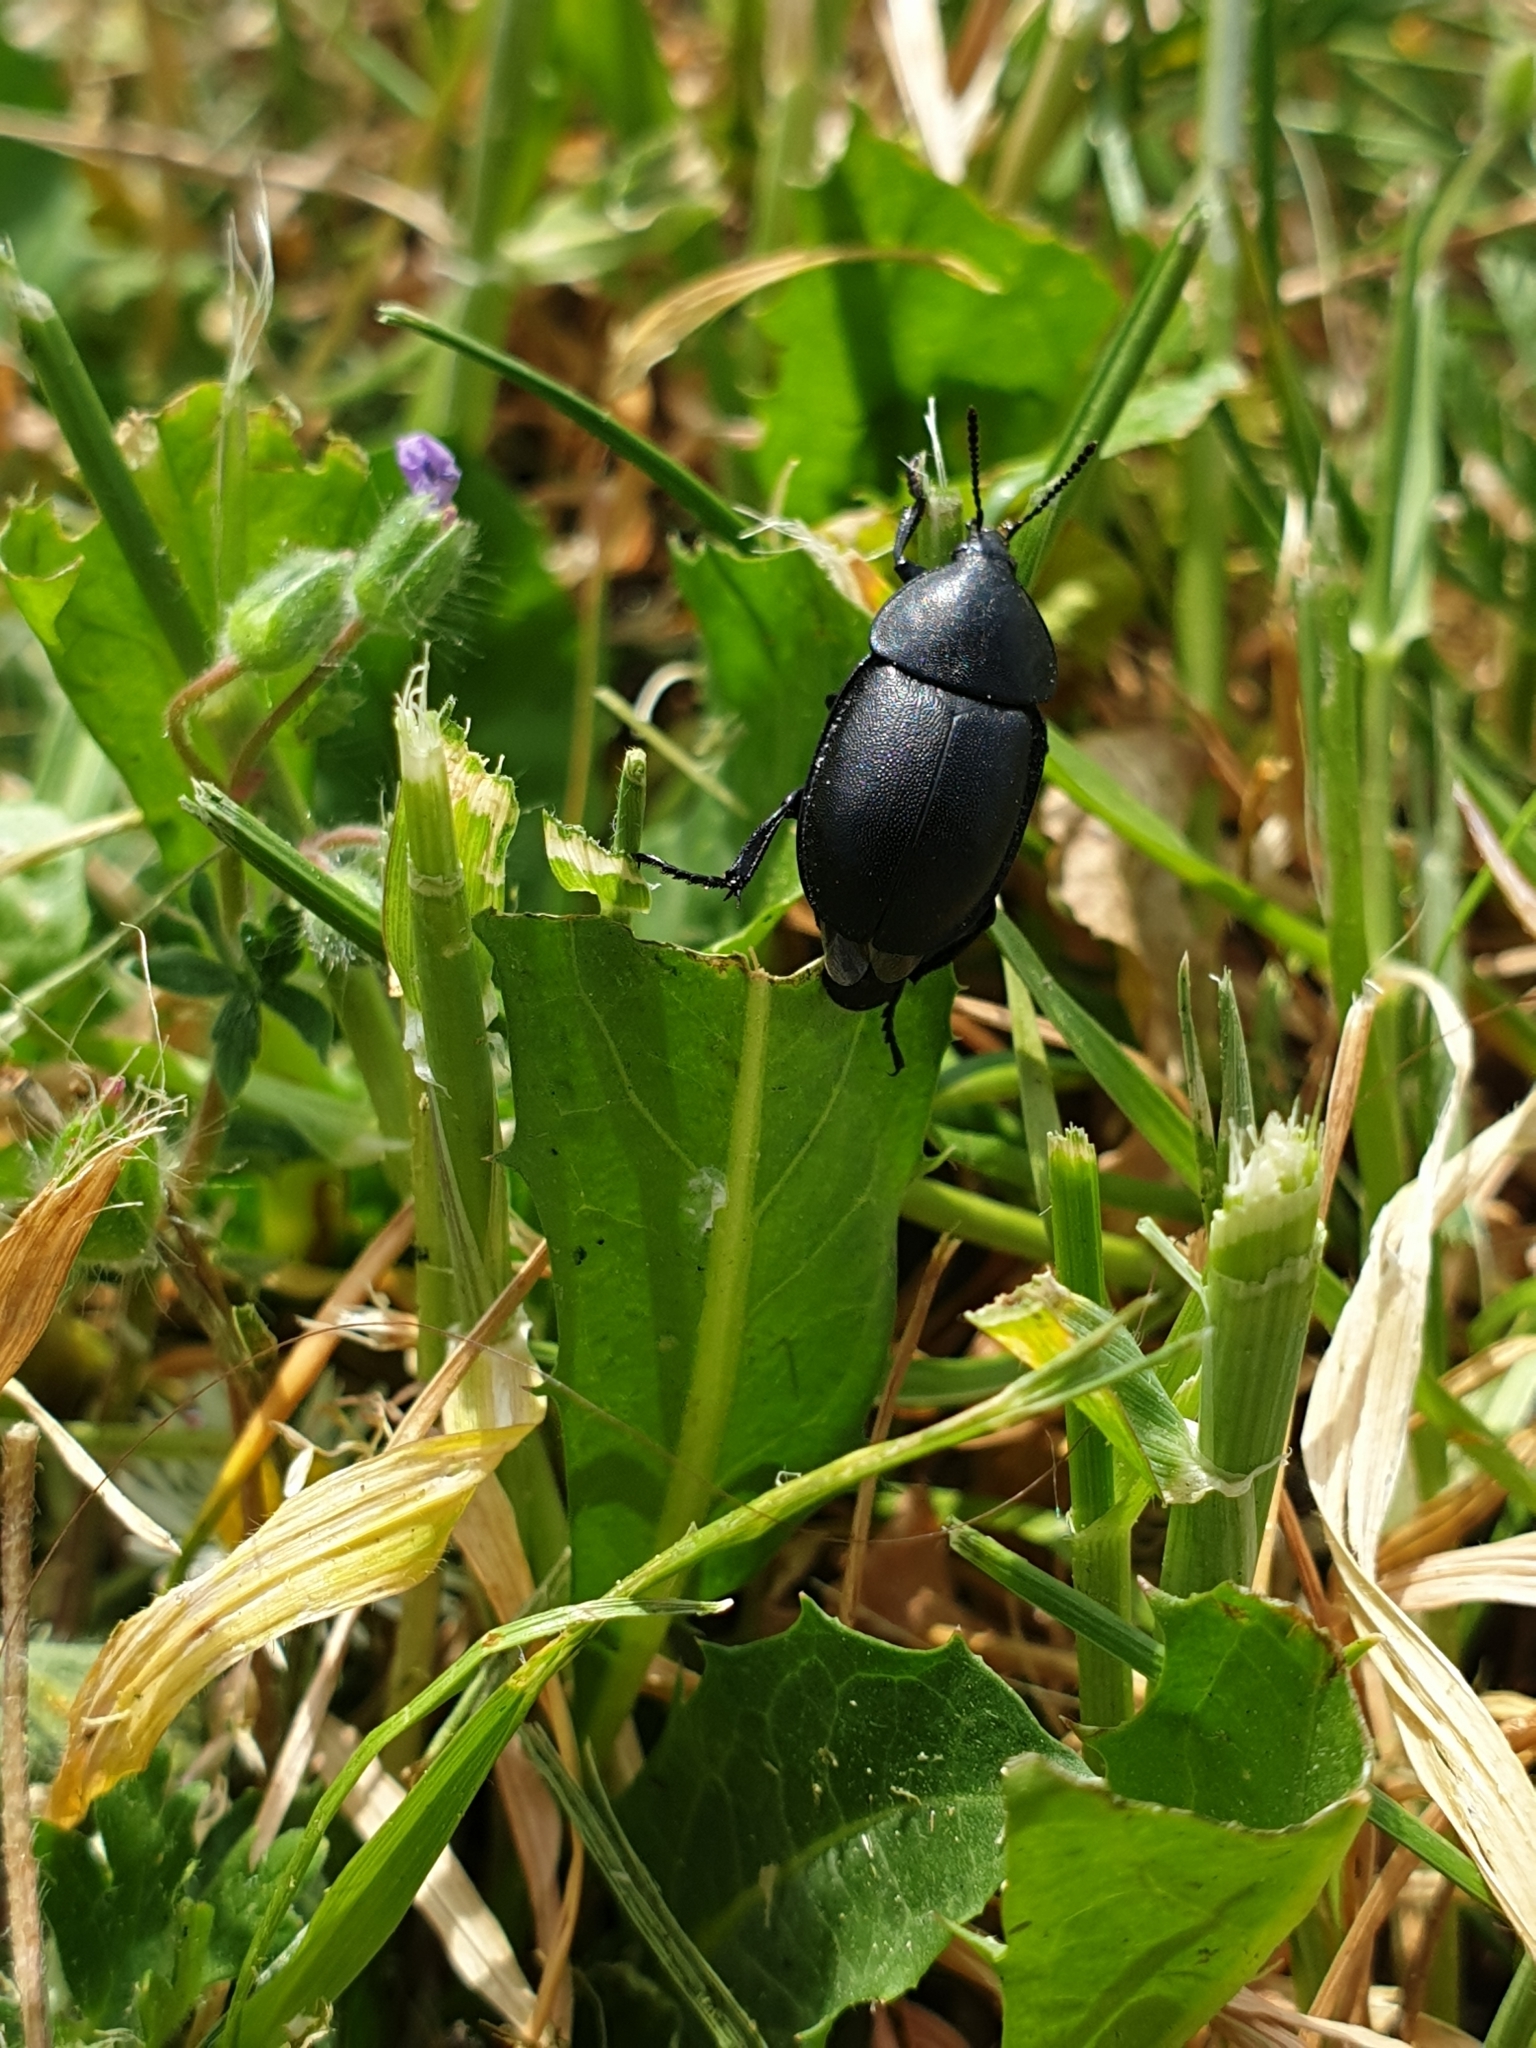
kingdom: Animalia
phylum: Arthropoda
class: Insecta
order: Coleoptera
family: Staphylinidae
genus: Silpha
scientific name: Silpha laevigata
